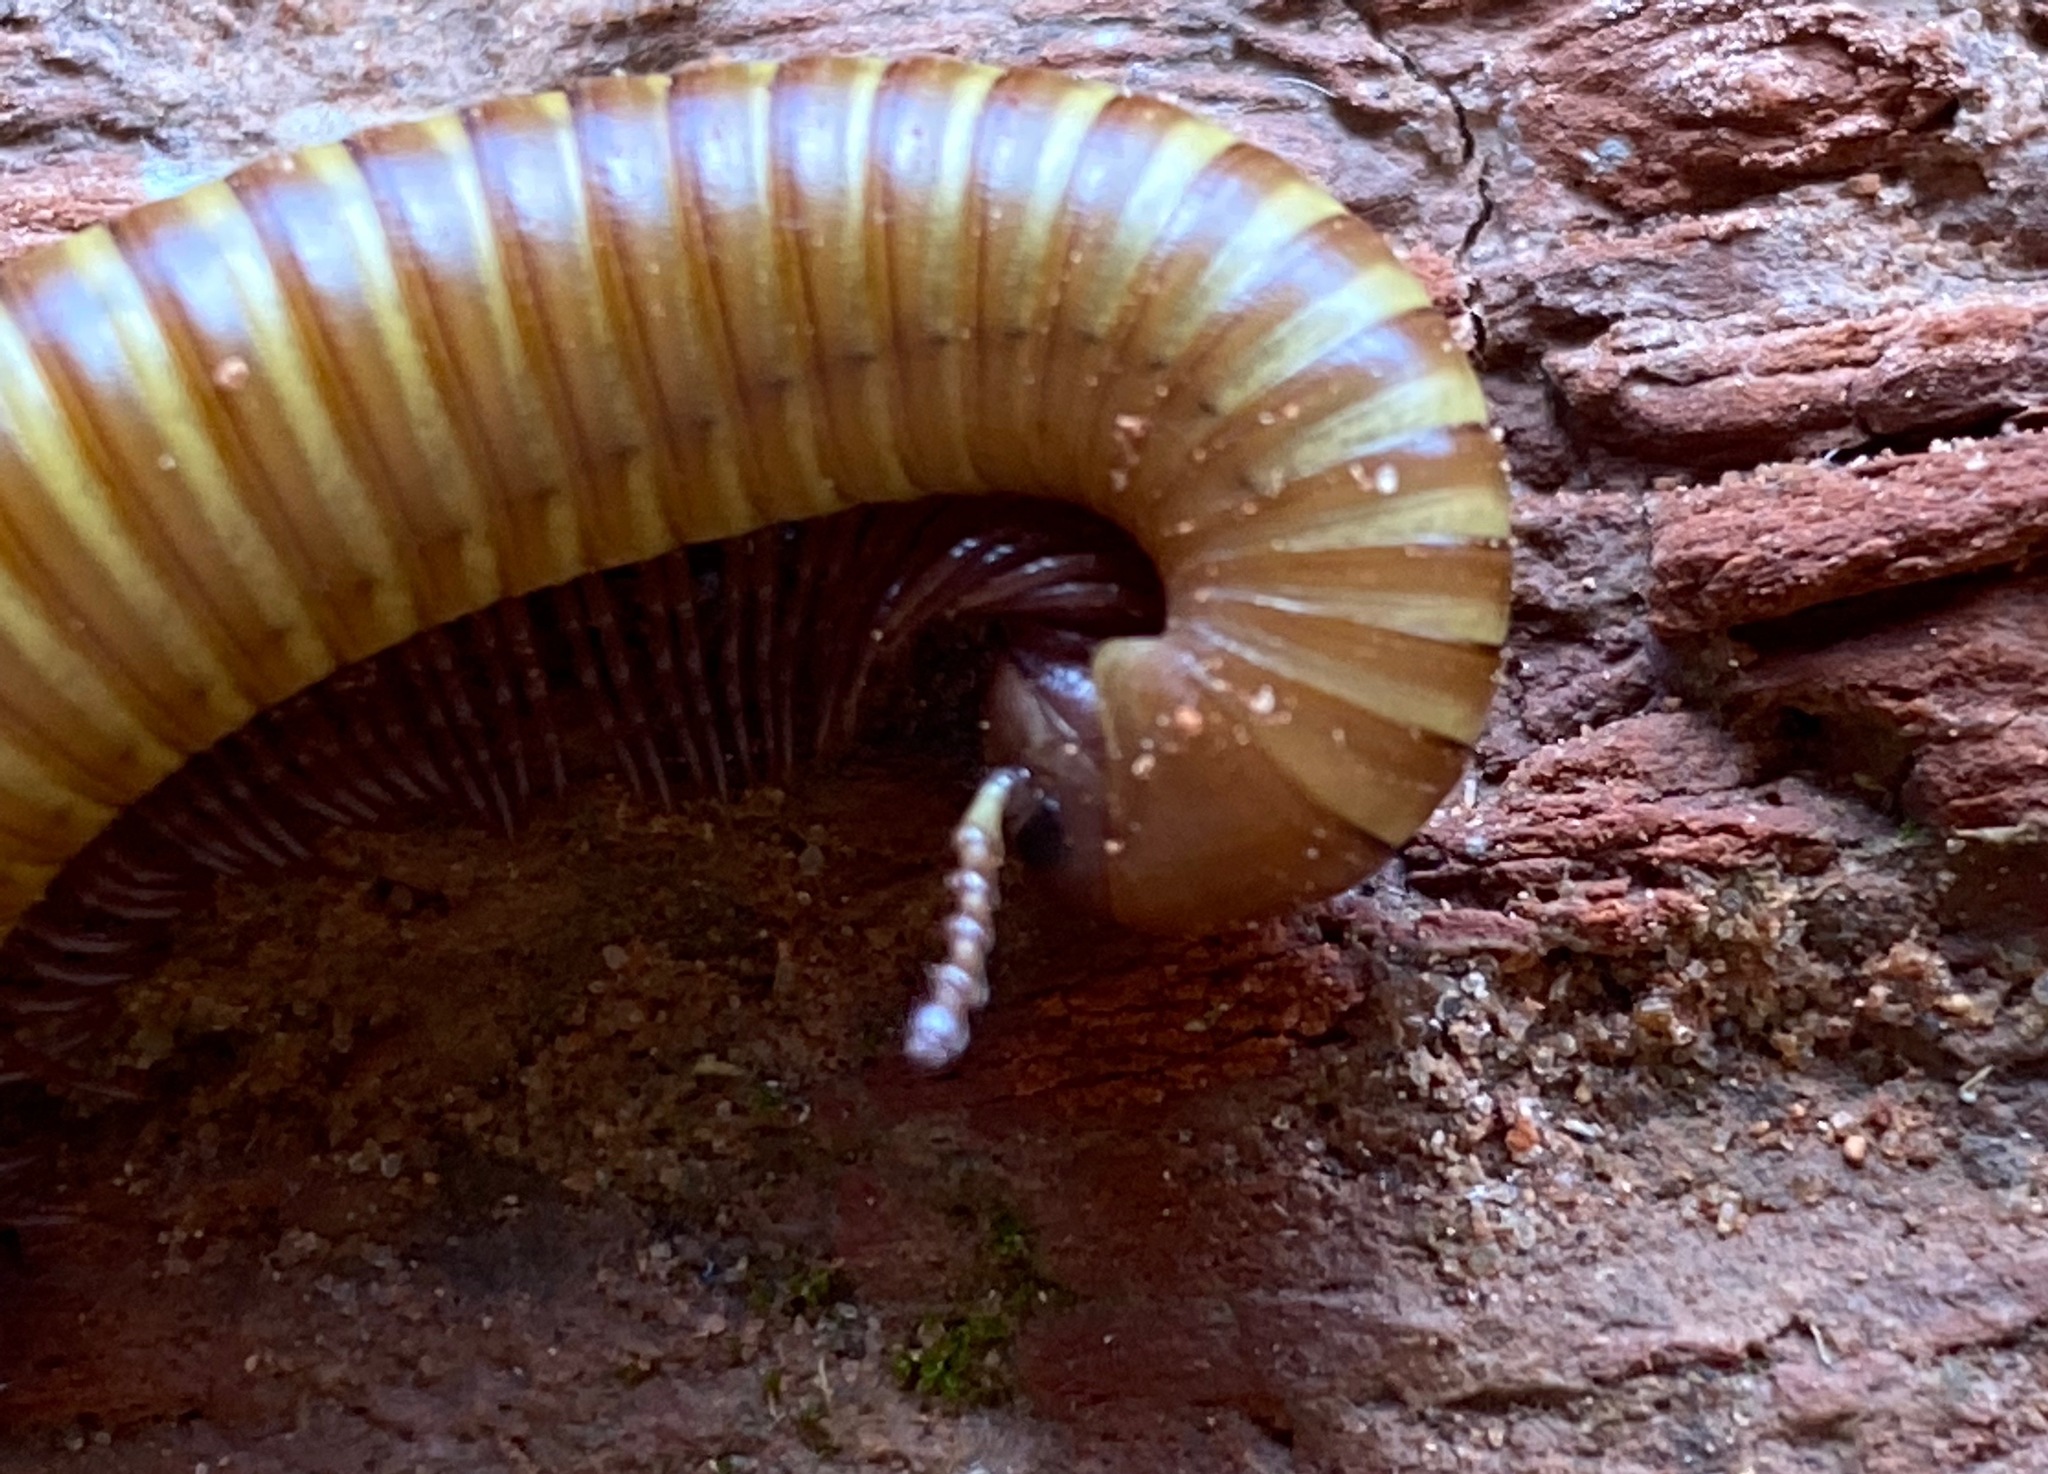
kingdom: Animalia
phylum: Arthropoda
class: Diplopoda
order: Spirostreptida
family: Spirostreptidae
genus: Orthoporus
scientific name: Orthoporus ornatus
